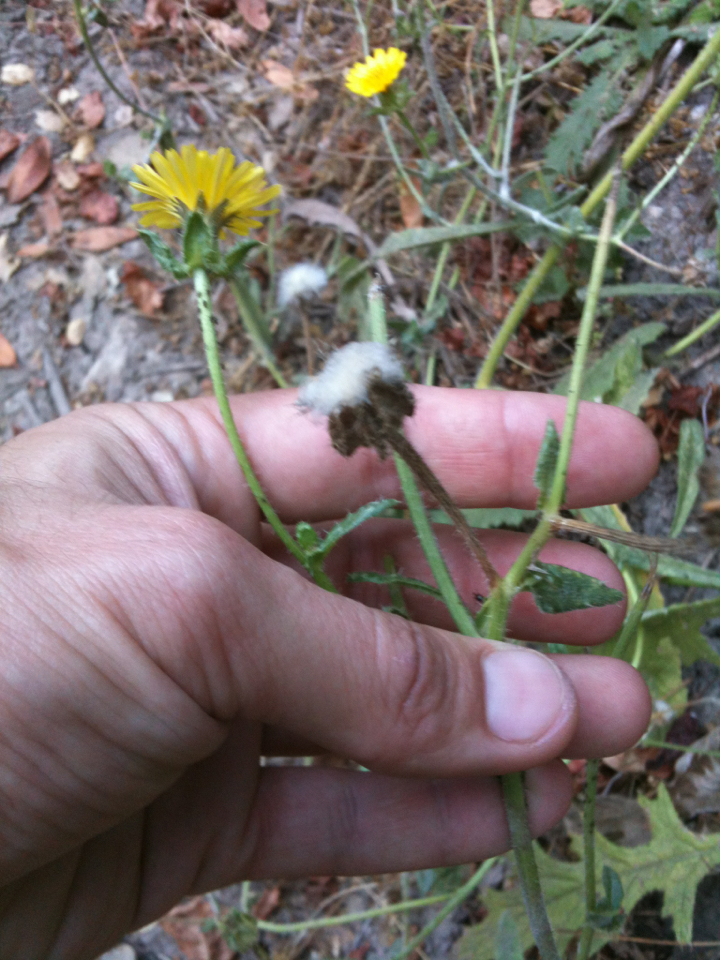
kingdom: Plantae
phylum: Tracheophyta
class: Magnoliopsida
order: Asterales
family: Asteraceae
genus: Helminthotheca
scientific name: Helminthotheca echioides
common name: Ox-tongue
